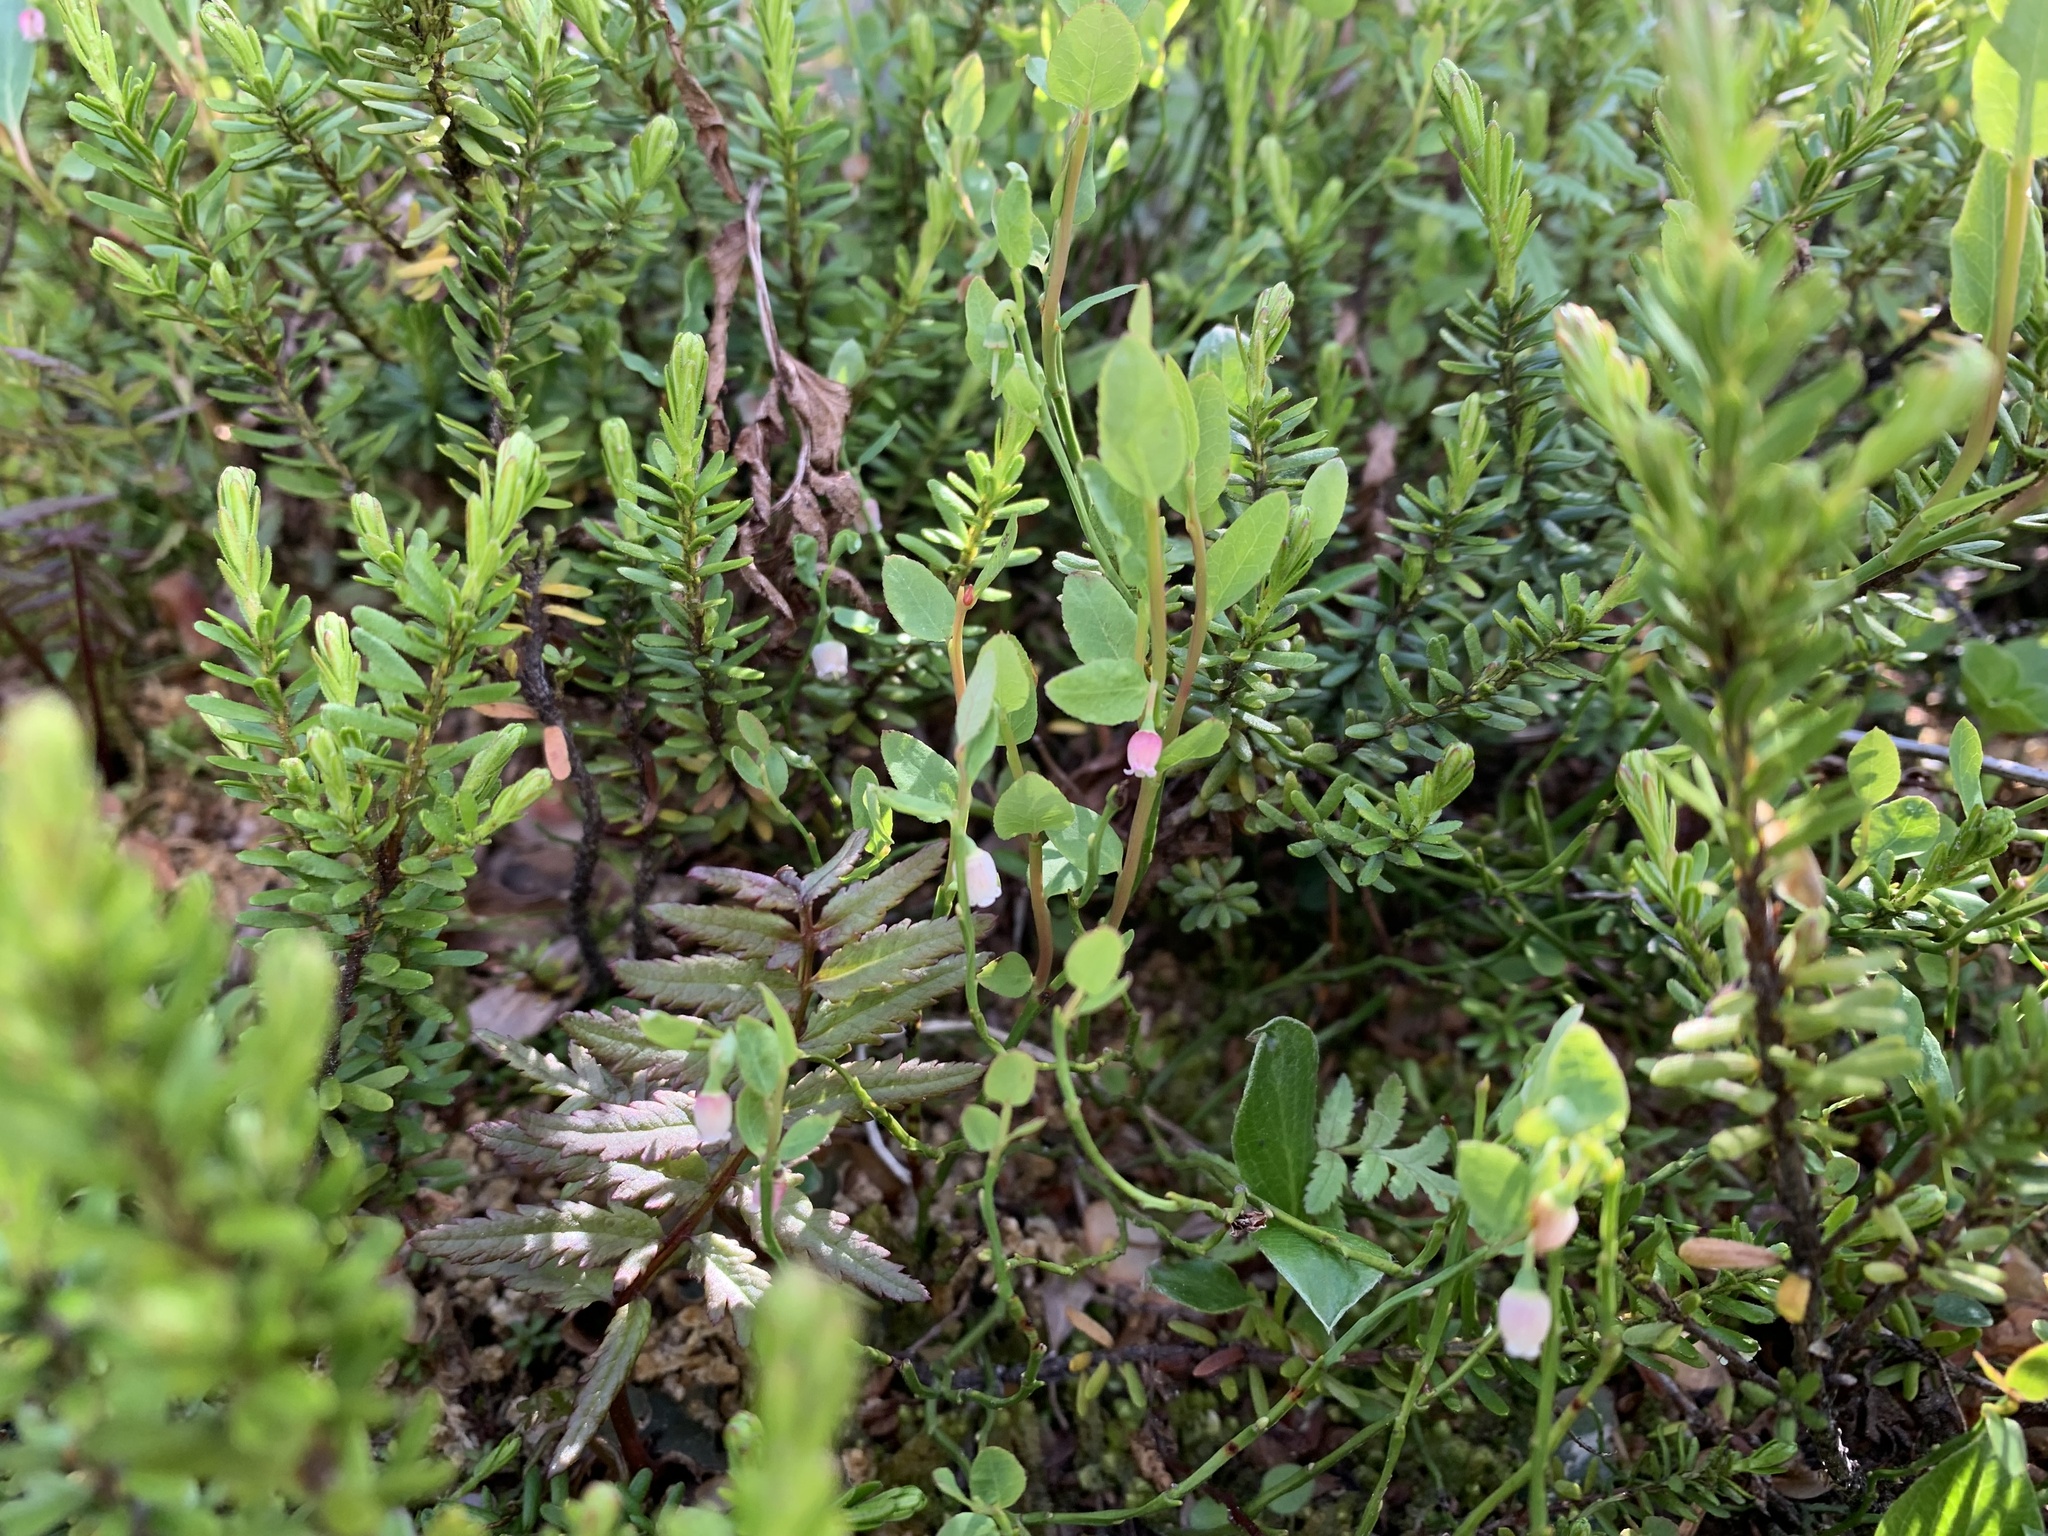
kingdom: Plantae
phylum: Tracheophyta
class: Magnoliopsida
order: Ericales
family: Ericaceae
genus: Vaccinium
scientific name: Vaccinium scoparium
